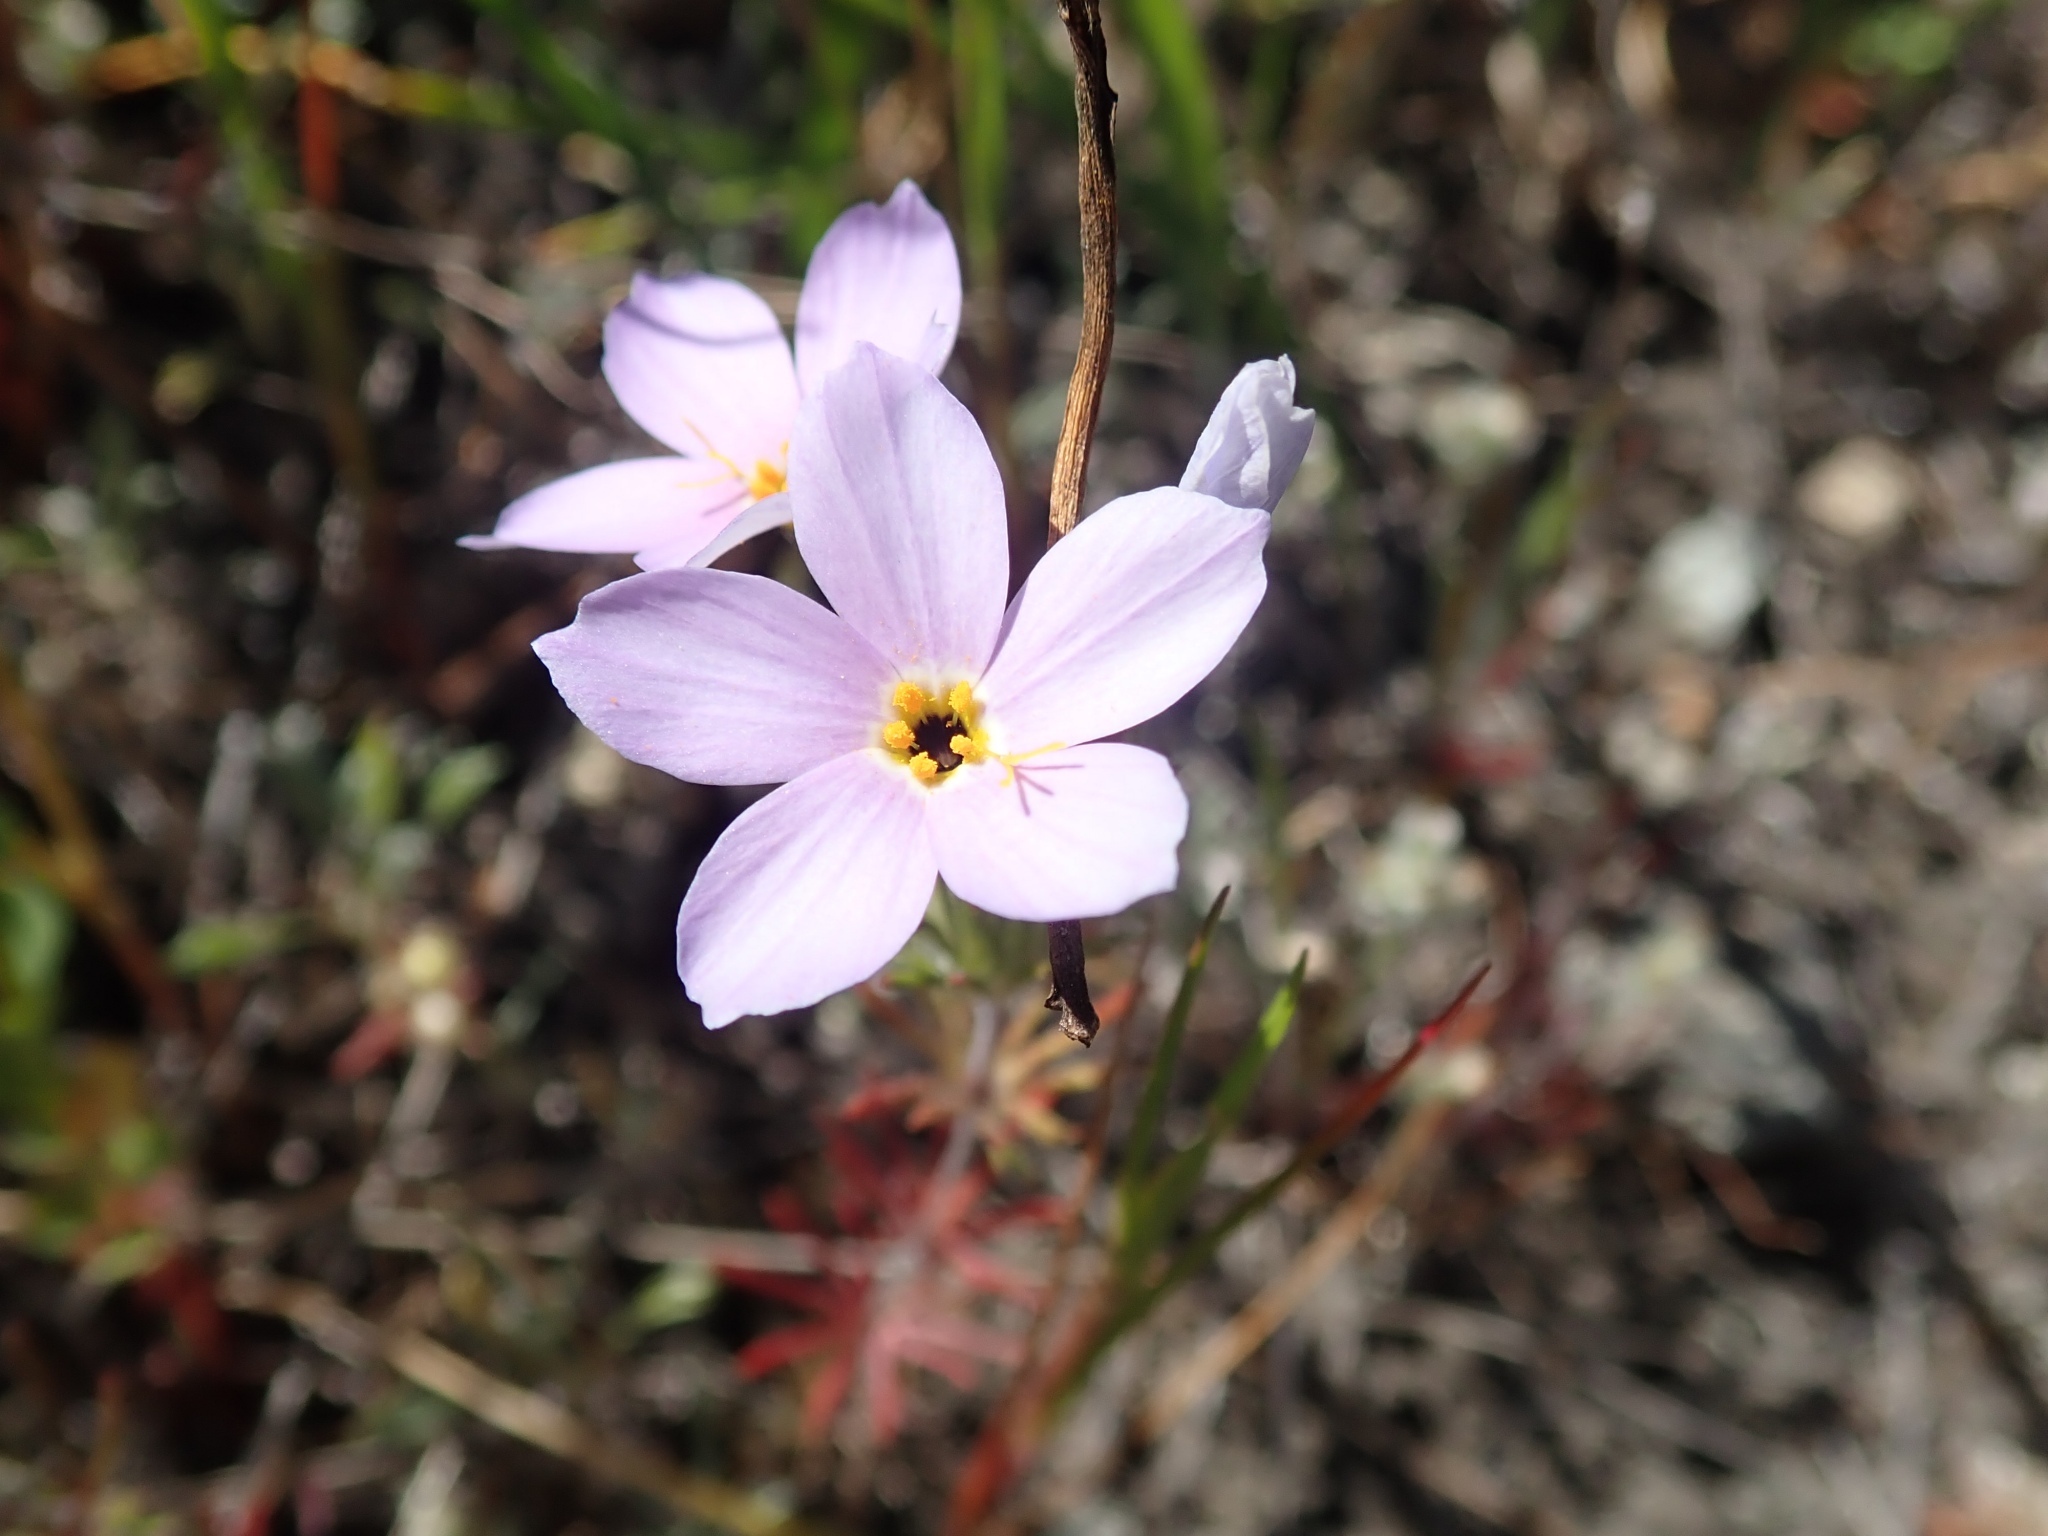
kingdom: Plantae
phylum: Tracheophyta
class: Magnoliopsida
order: Ericales
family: Polemoniaceae
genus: Leptosiphon
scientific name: Leptosiphon androsaceus
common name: False babystars
